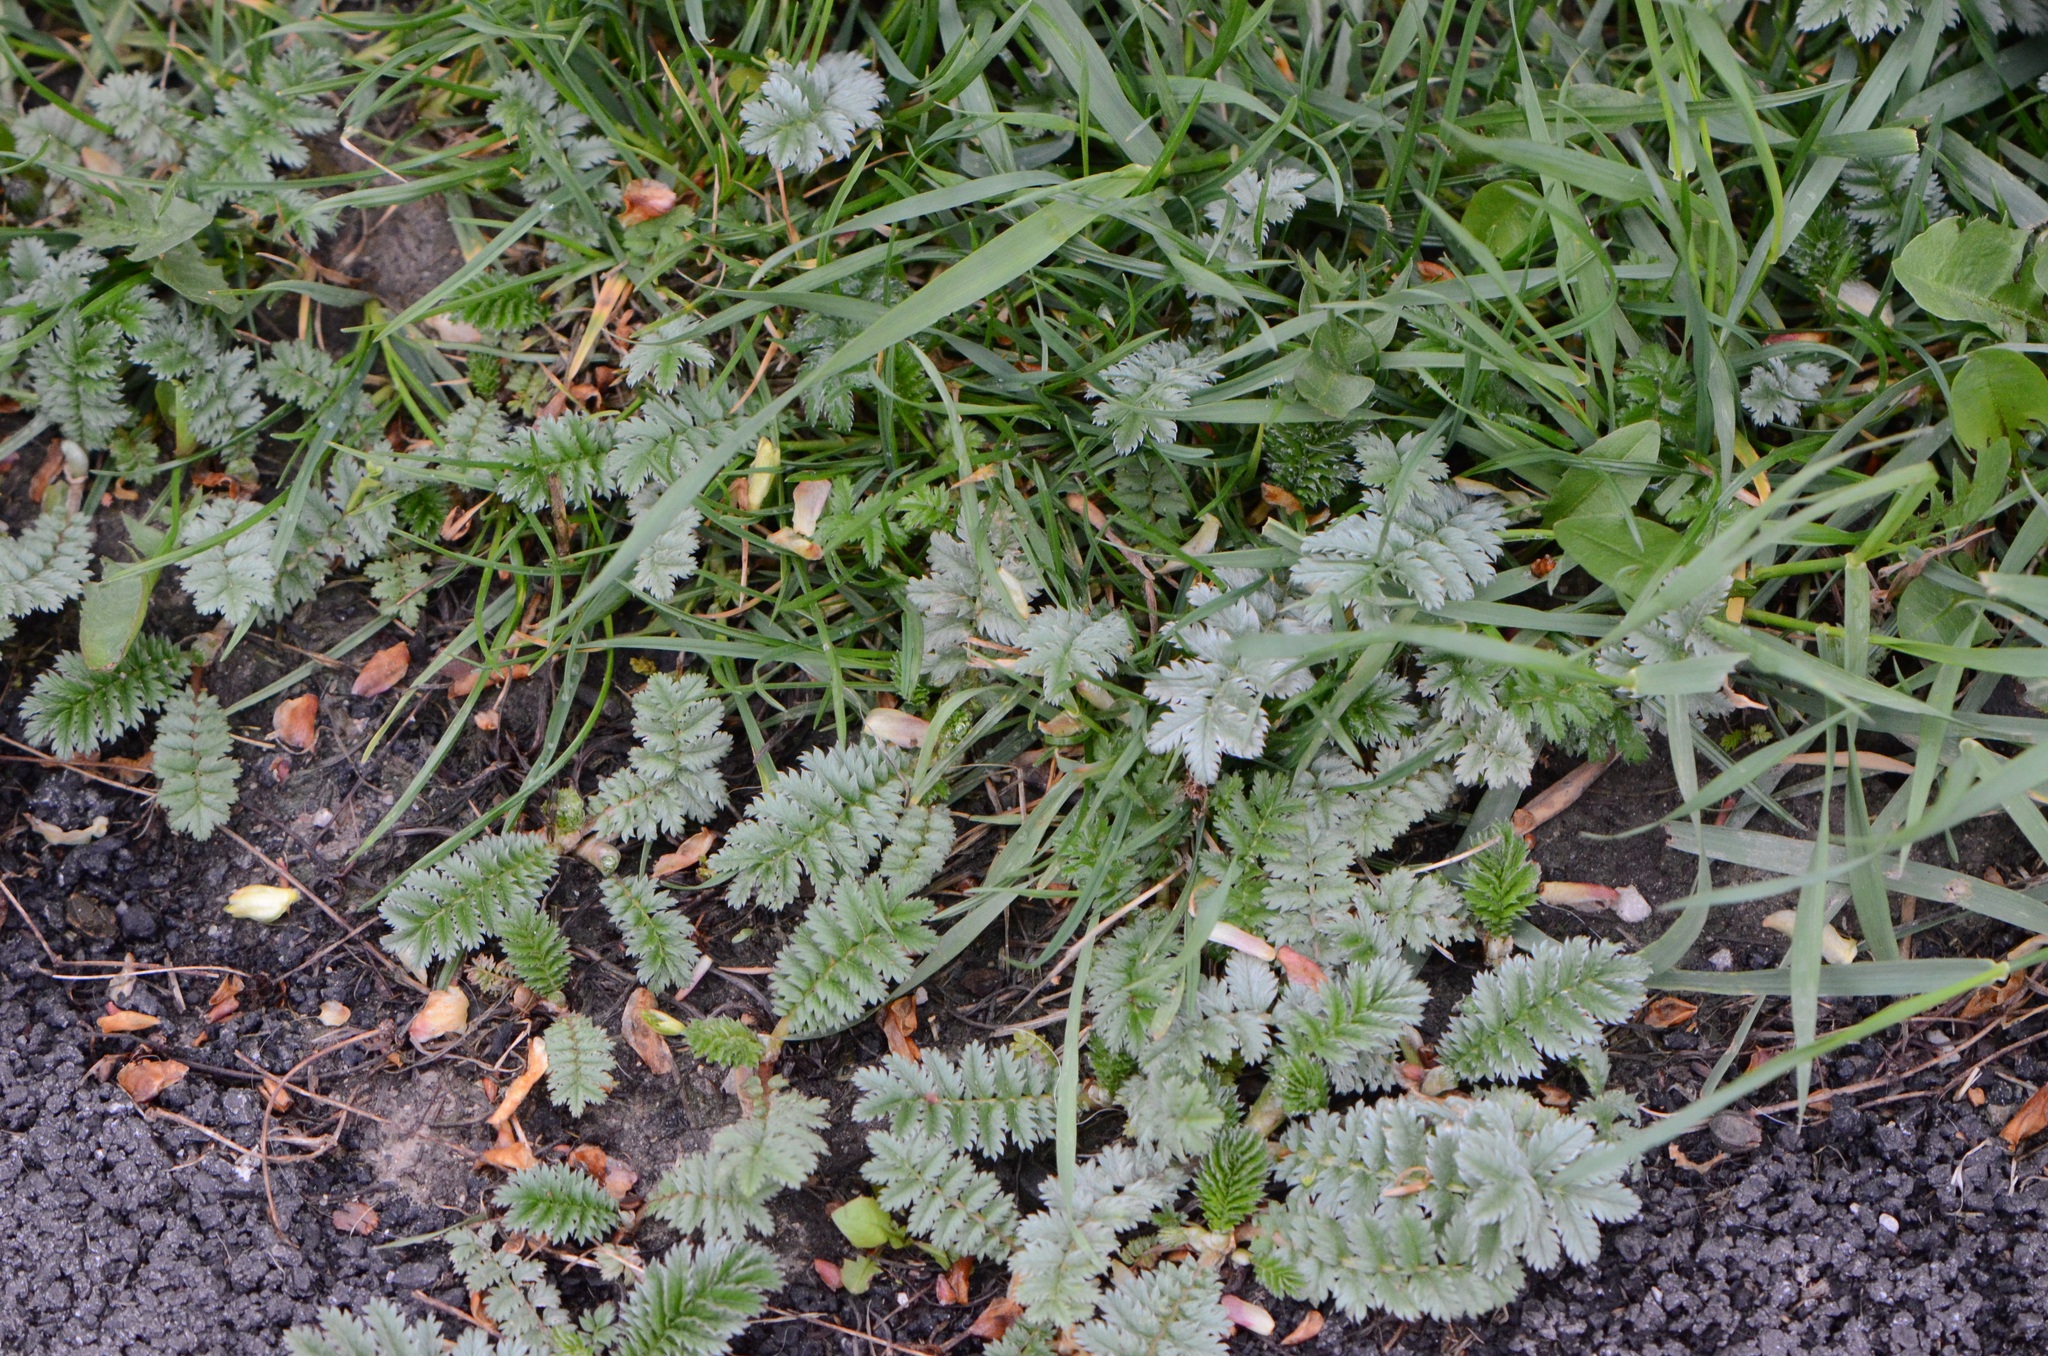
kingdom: Plantae
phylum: Tracheophyta
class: Magnoliopsida
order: Rosales
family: Rosaceae
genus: Argentina
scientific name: Argentina anserina
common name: Common silverweed
